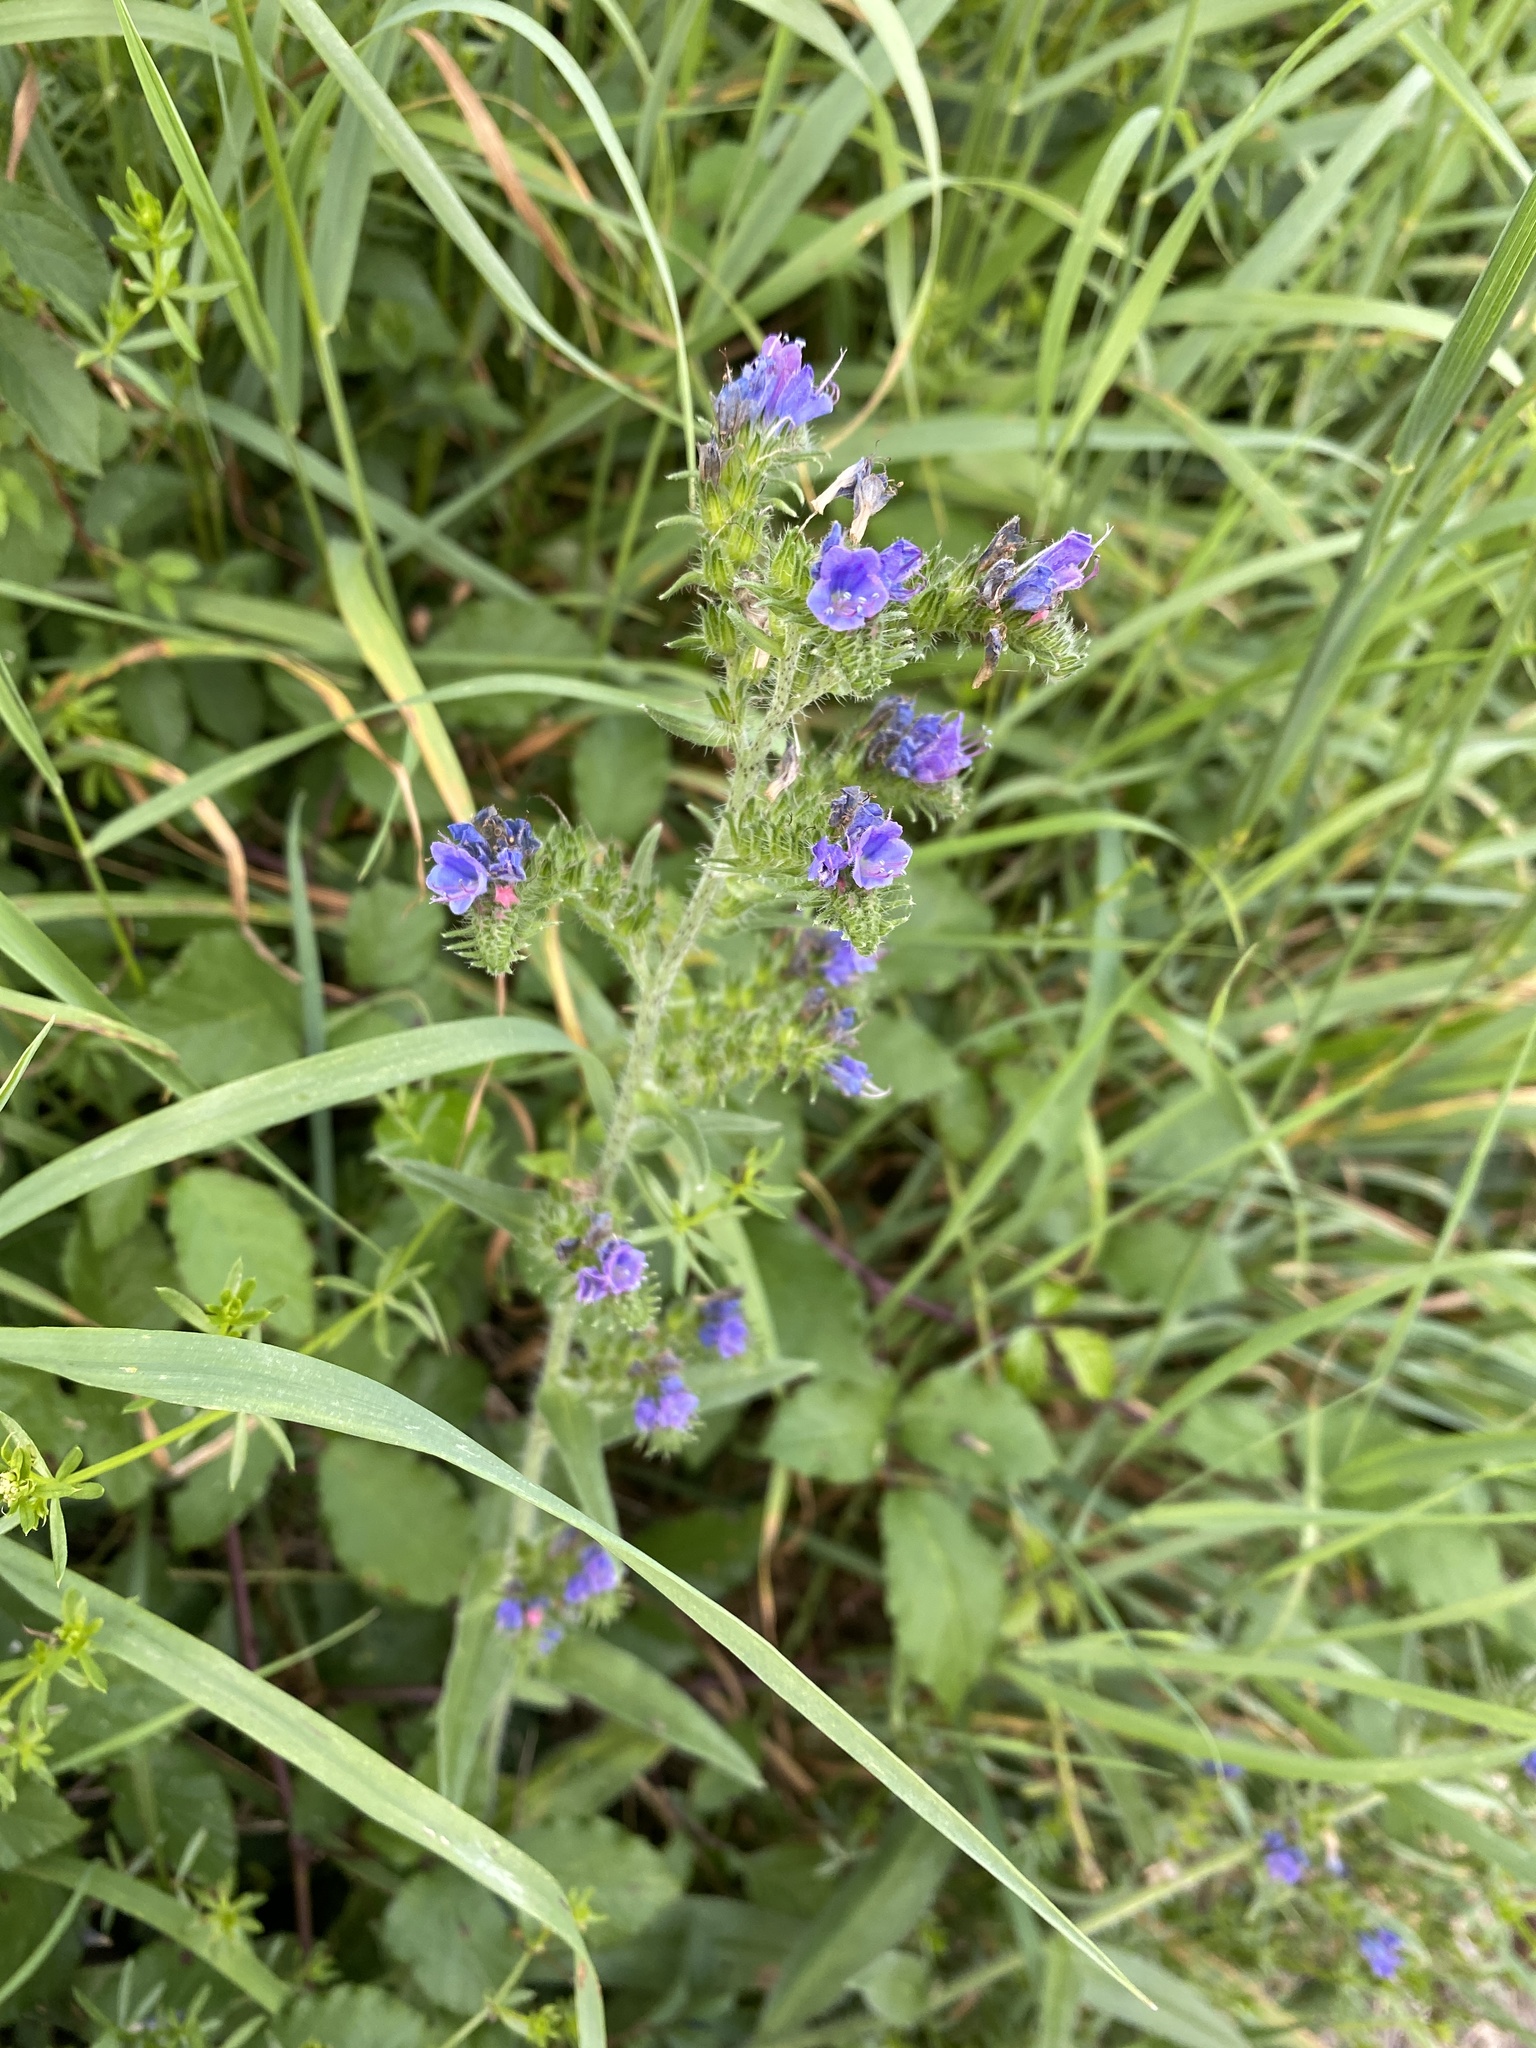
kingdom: Plantae
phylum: Tracheophyta
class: Magnoliopsida
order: Boraginales
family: Boraginaceae
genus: Echium
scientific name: Echium vulgare
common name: Common viper's bugloss
